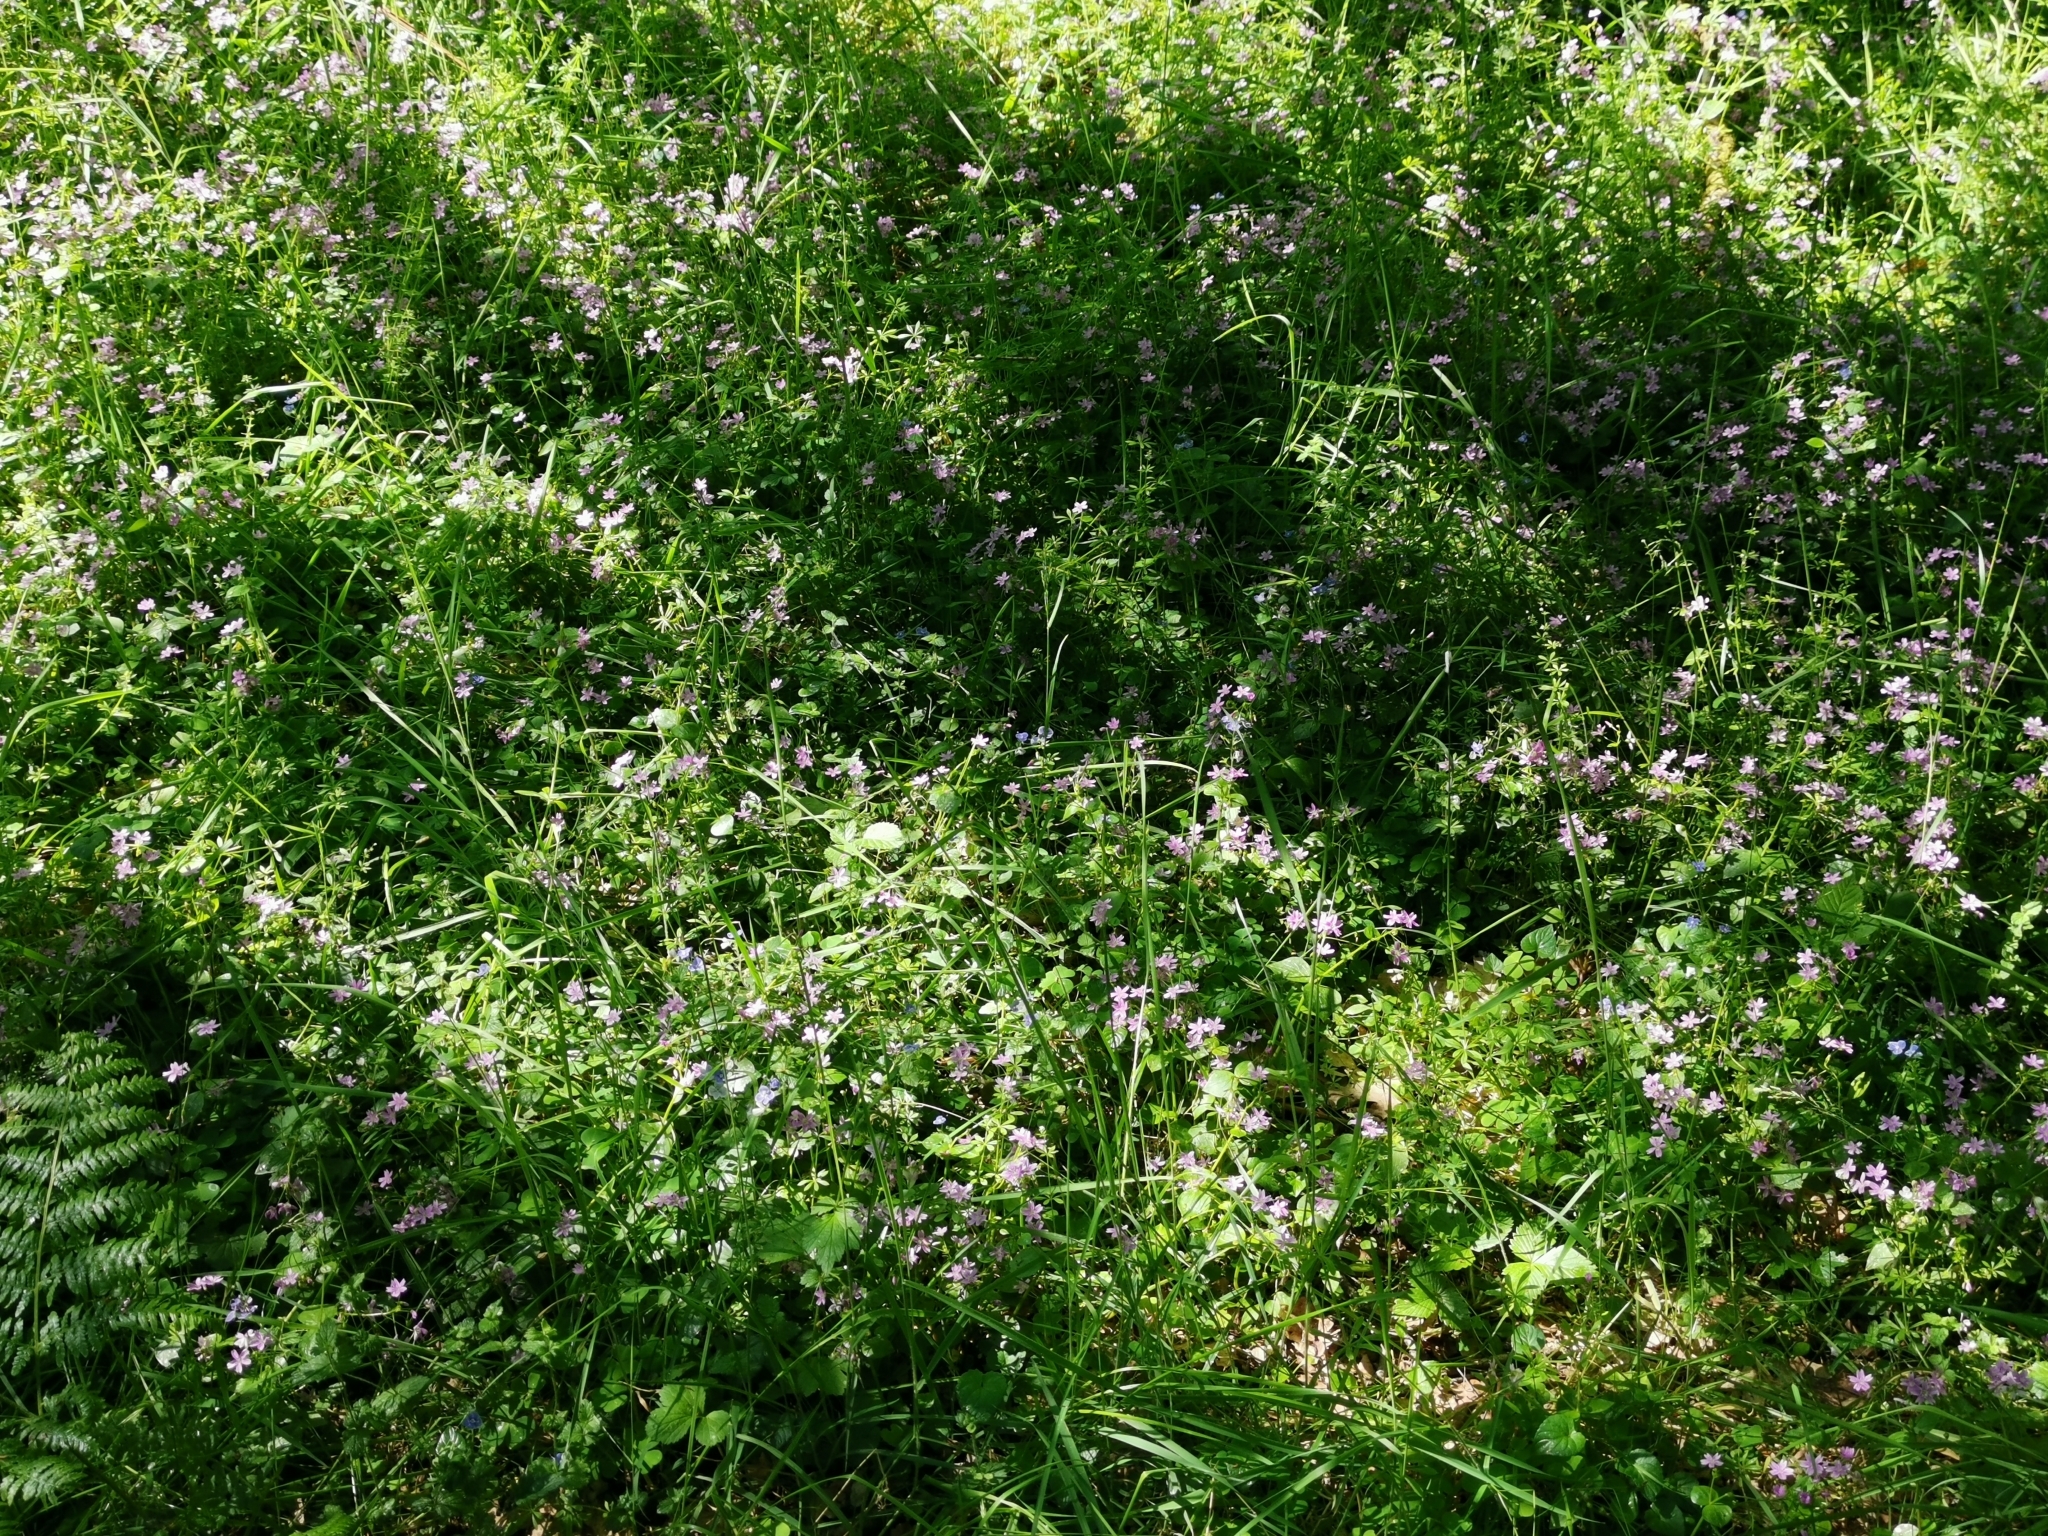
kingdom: Plantae
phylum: Tracheophyta
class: Magnoliopsida
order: Caryophyllales
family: Montiaceae
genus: Claytonia
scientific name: Claytonia sibirica
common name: Pink purslane
